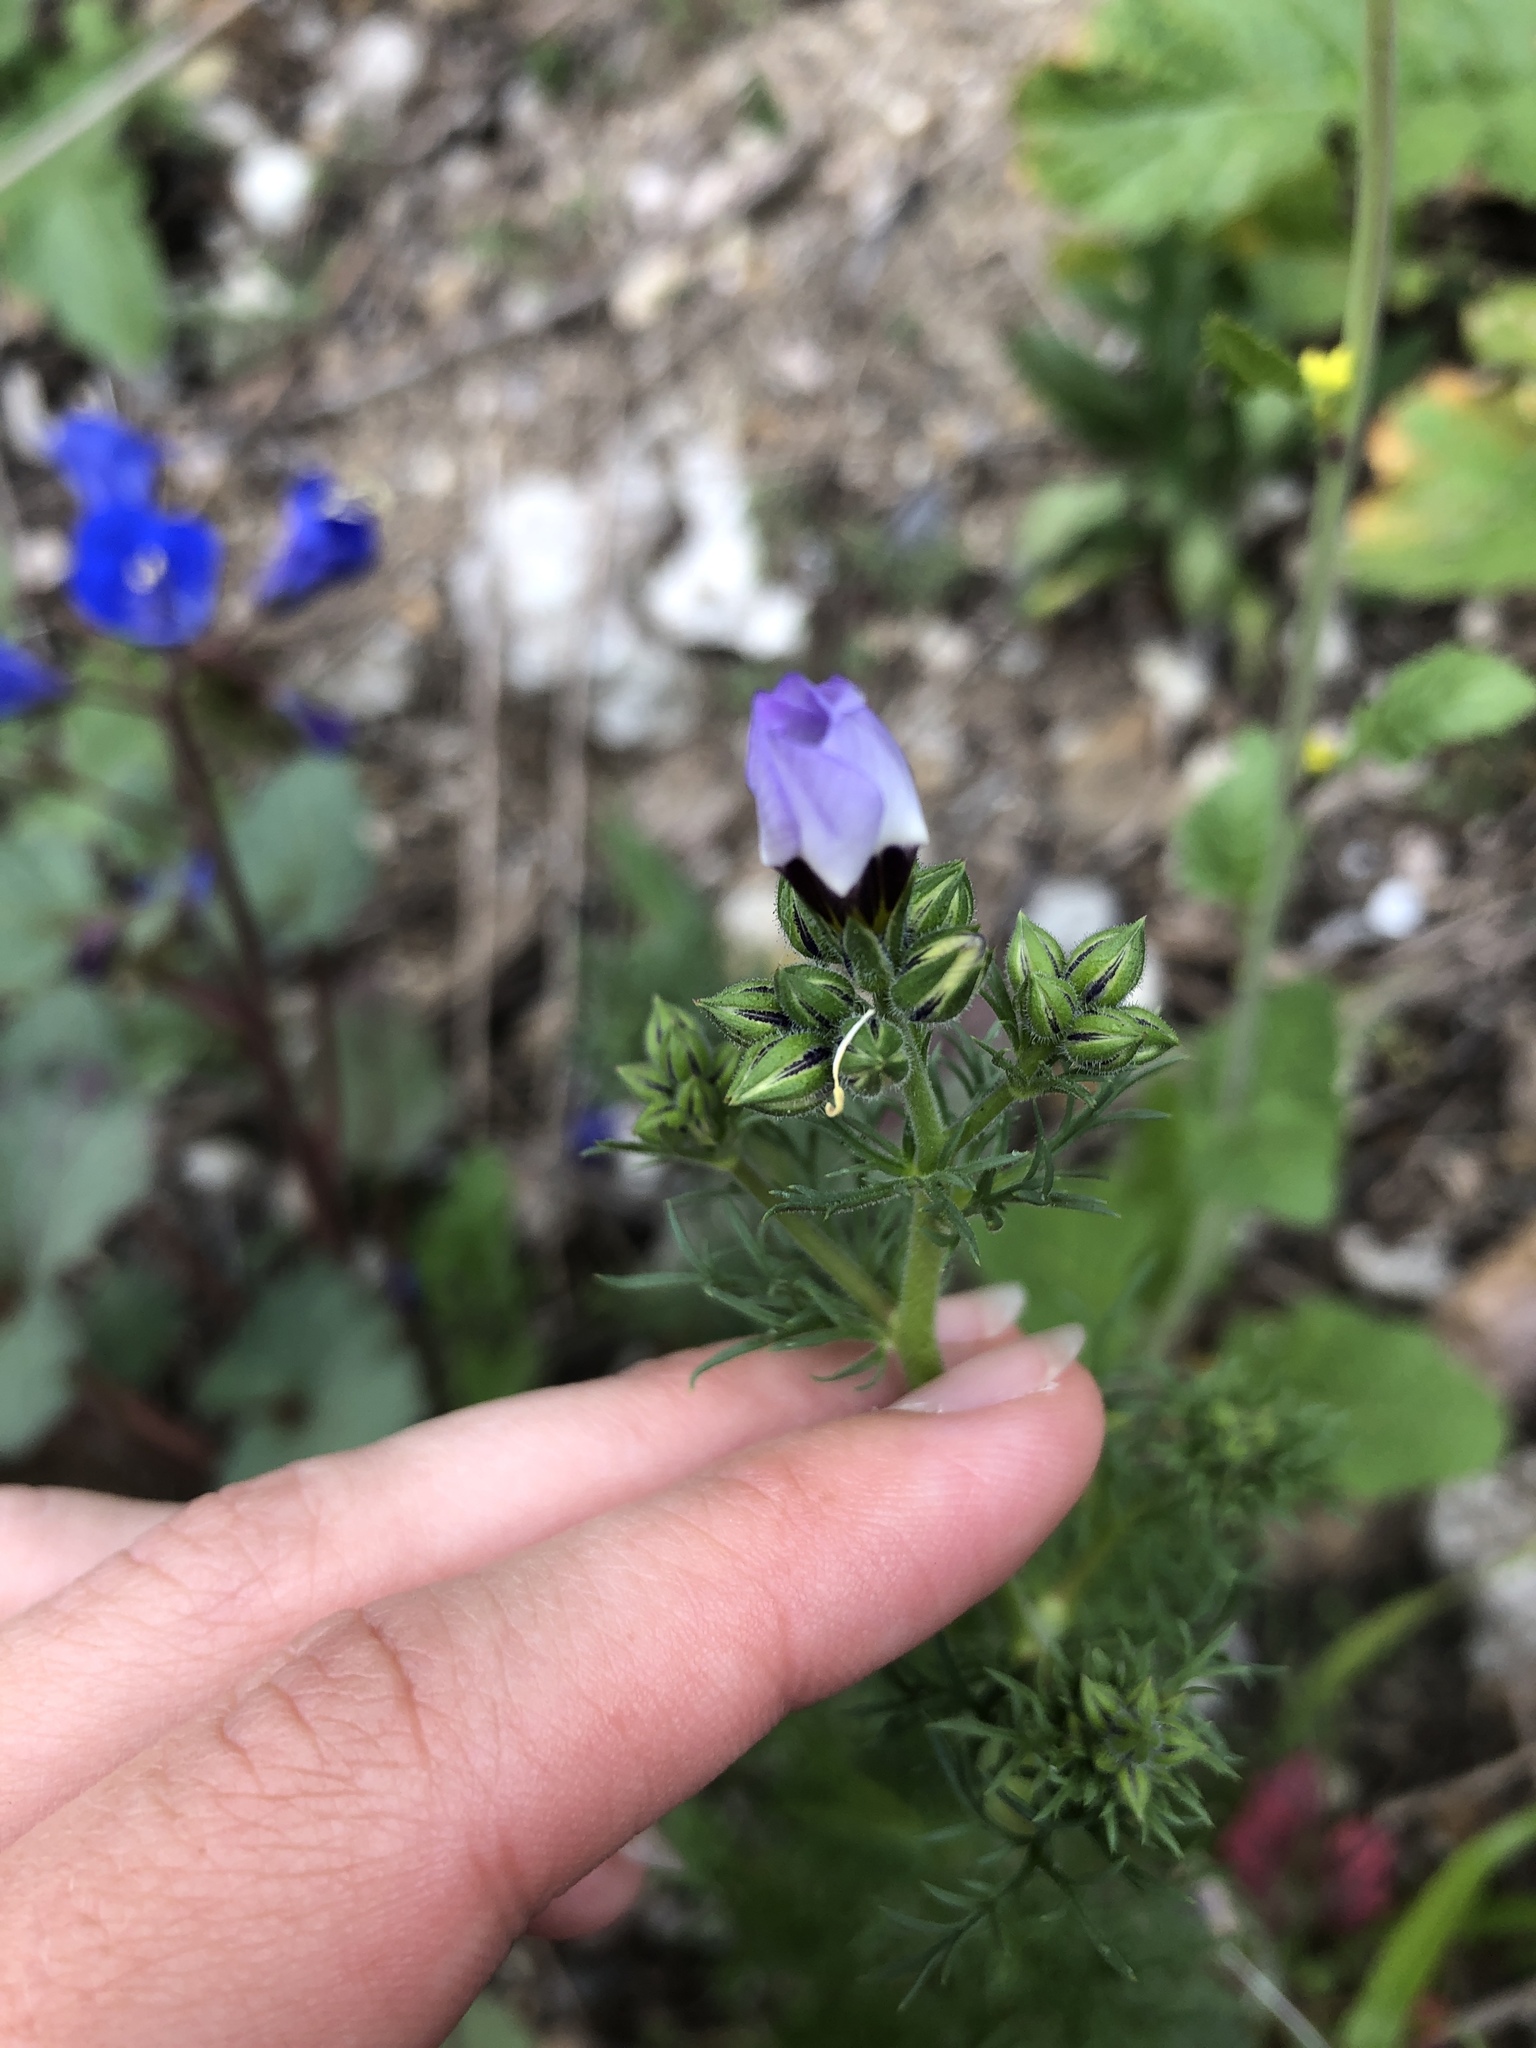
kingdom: Plantae
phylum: Tracheophyta
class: Magnoliopsida
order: Ericales
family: Polemoniaceae
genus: Gilia
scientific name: Gilia tricolor
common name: Bird's-eyes
